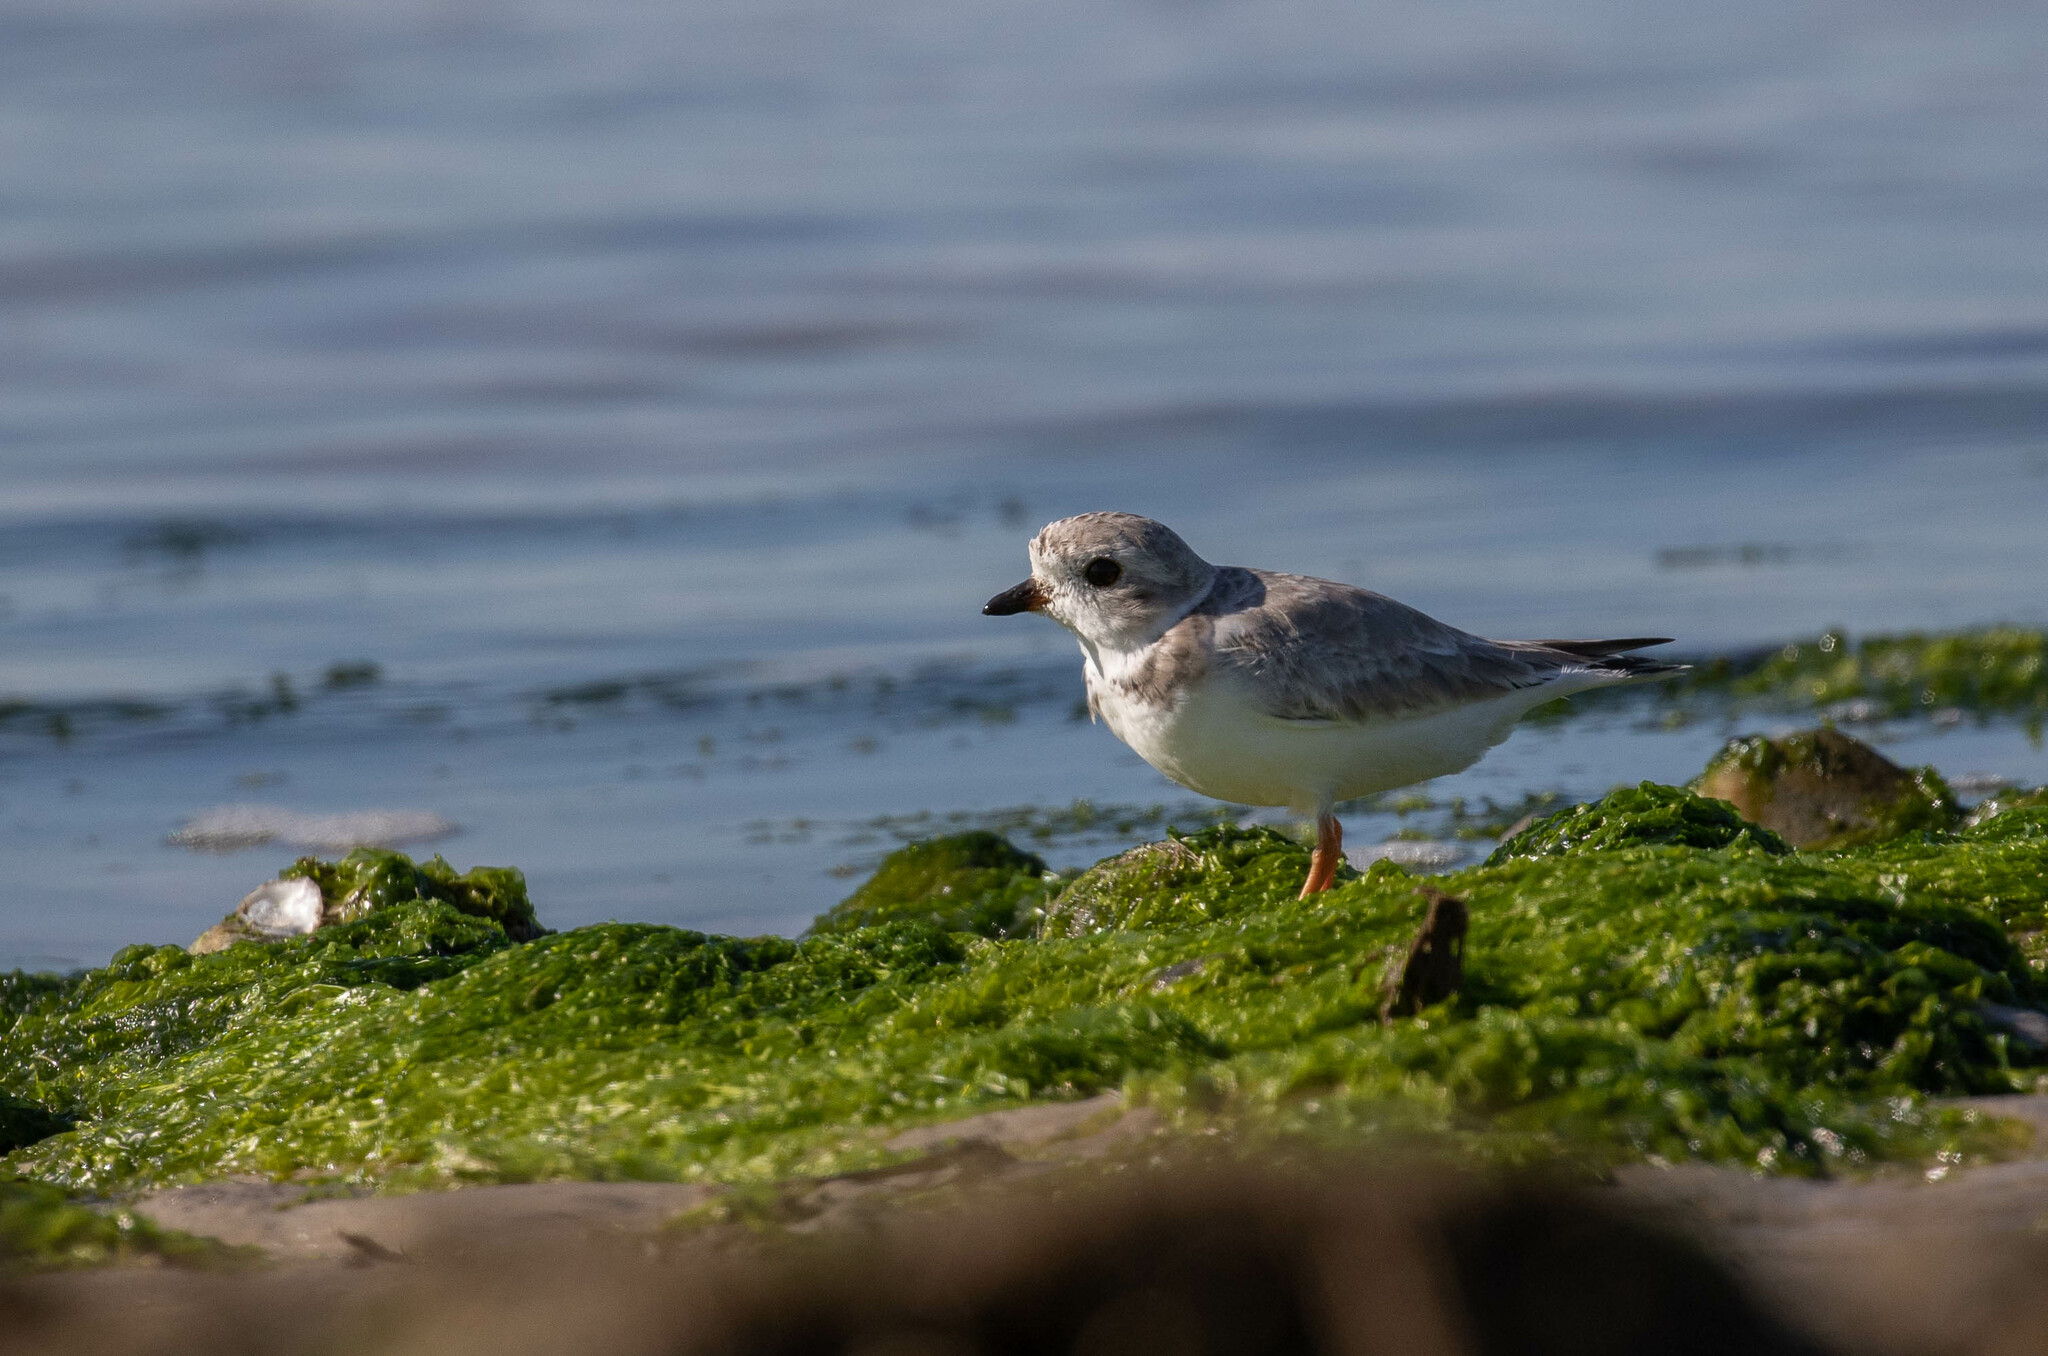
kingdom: Animalia
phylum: Chordata
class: Aves
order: Charadriiformes
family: Charadriidae
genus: Charadrius
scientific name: Charadrius melodus
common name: Piping plover
